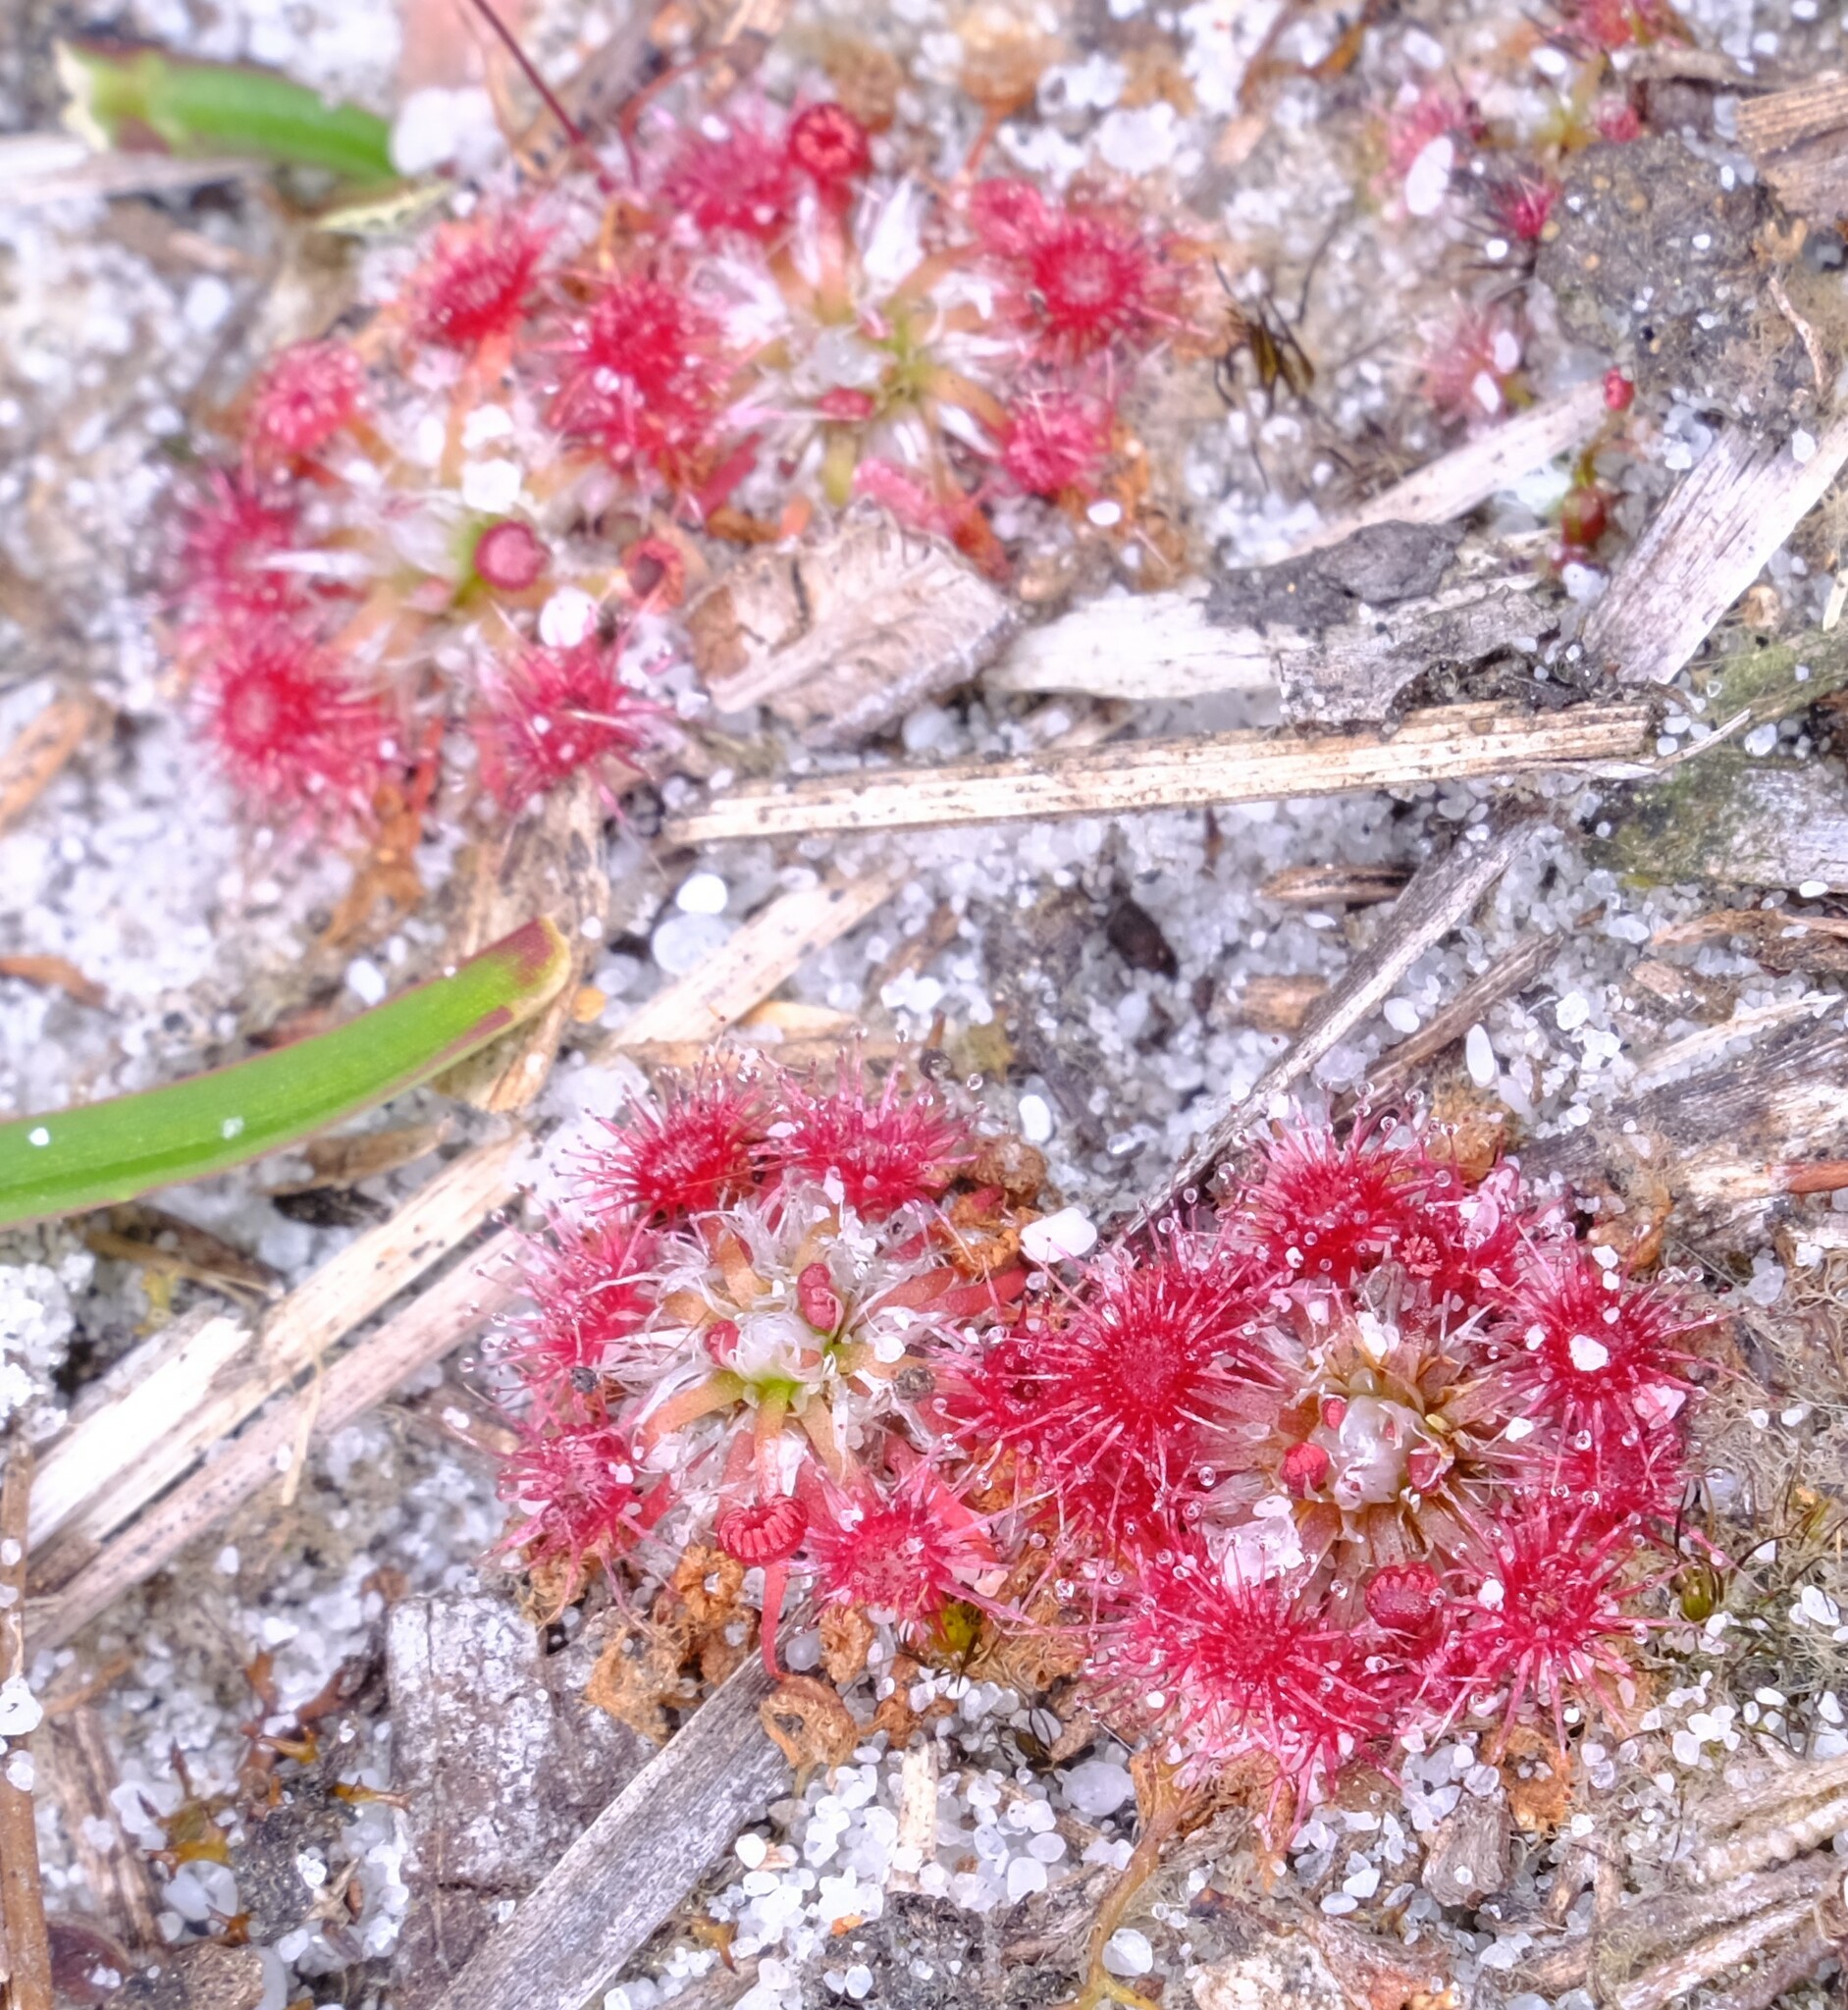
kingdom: Plantae
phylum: Tracheophyta
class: Magnoliopsida
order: Caryophyllales
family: Droseraceae
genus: Drosera
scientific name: Drosera pygmaea
